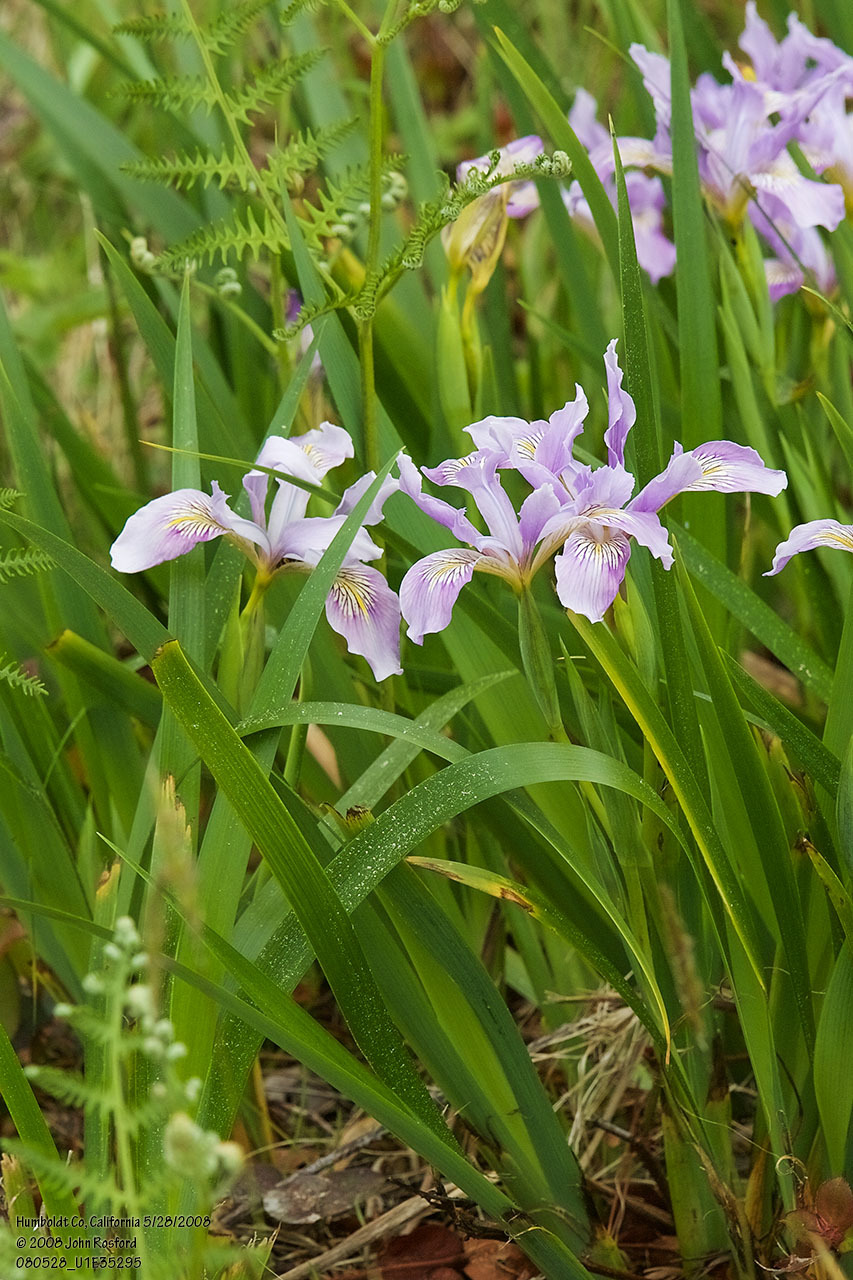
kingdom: Plantae
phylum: Tracheophyta
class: Liliopsida
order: Asparagales
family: Iridaceae
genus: Iris
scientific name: Iris douglasiana
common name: Marin iris
